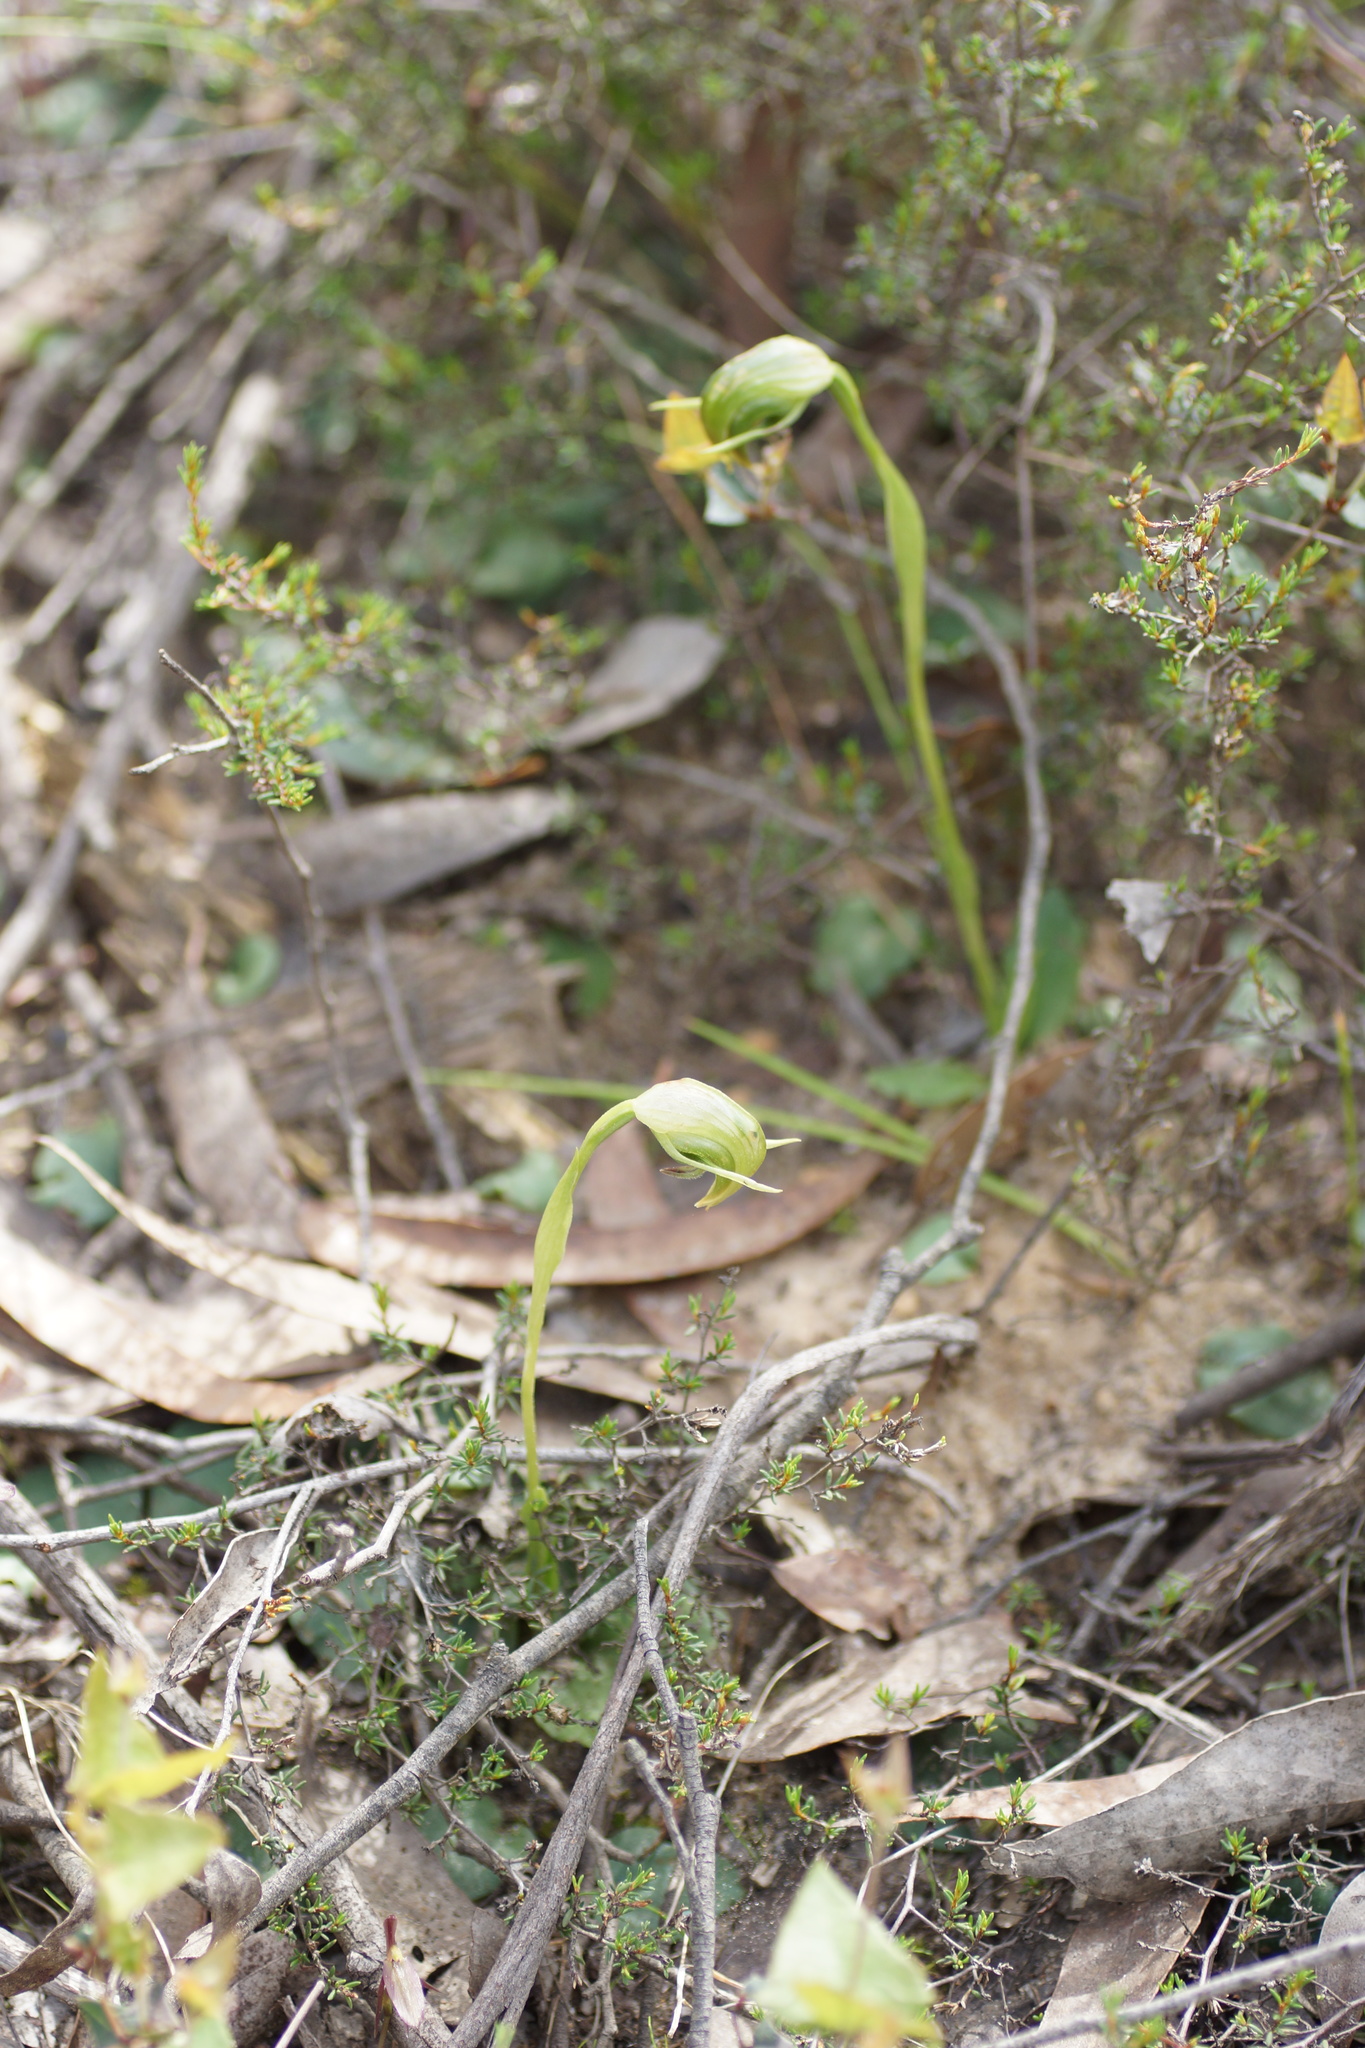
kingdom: Plantae
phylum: Tracheophyta
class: Liliopsida
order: Asparagales
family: Orchidaceae
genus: Pterostylis
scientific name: Pterostylis nutans
